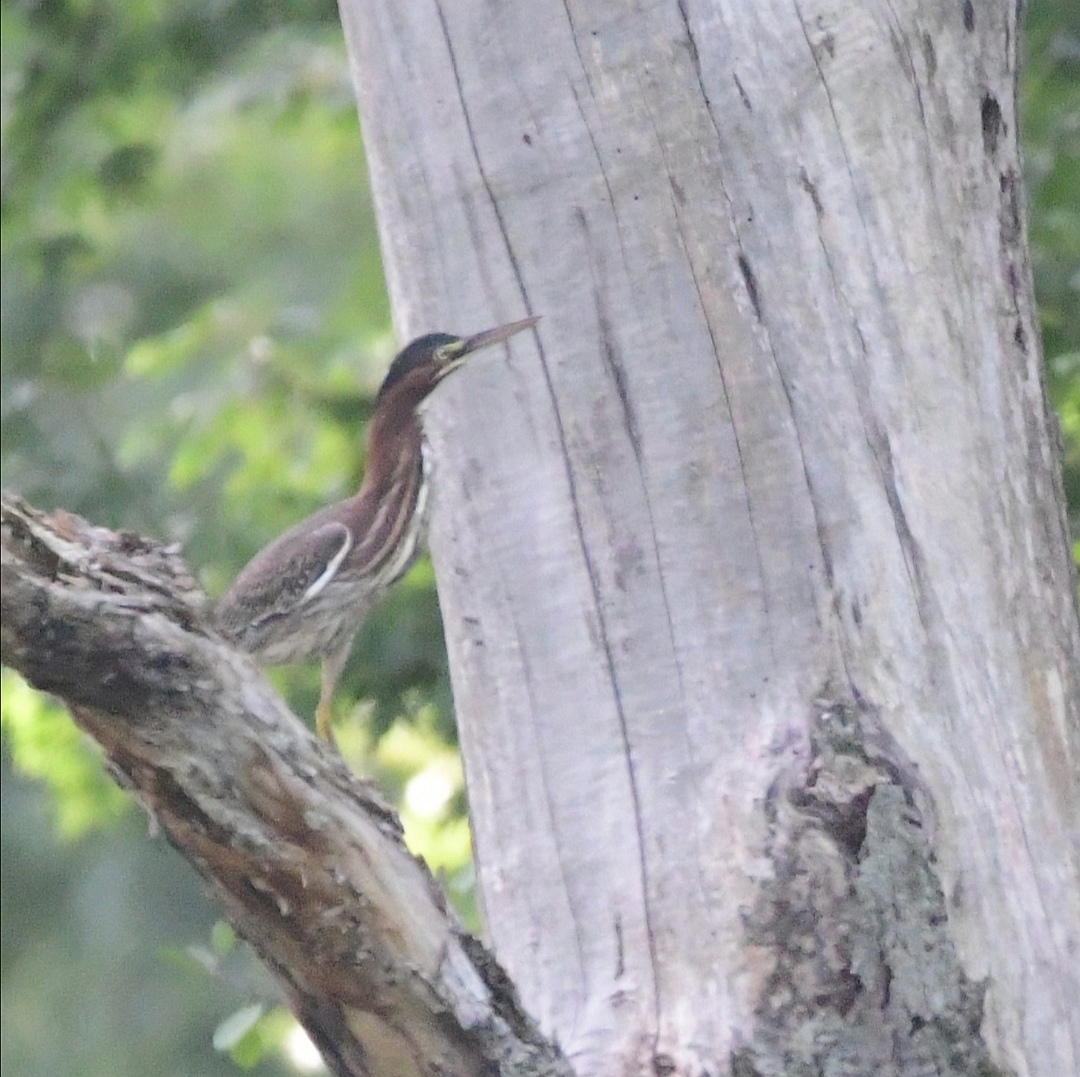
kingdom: Animalia
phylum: Chordata
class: Aves
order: Pelecaniformes
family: Ardeidae
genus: Butorides
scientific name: Butorides virescens
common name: Green heron
